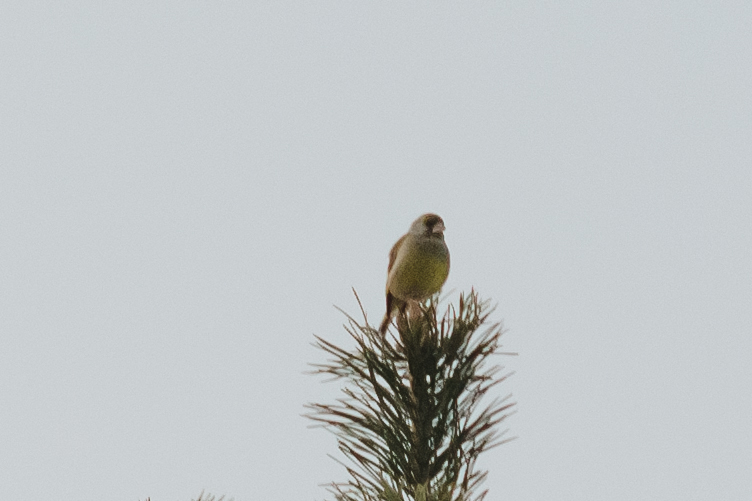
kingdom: Plantae
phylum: Tracheophyta
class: Liliopsida
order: Poales
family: Poaceae
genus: Chloris
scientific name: Chloris chloris
